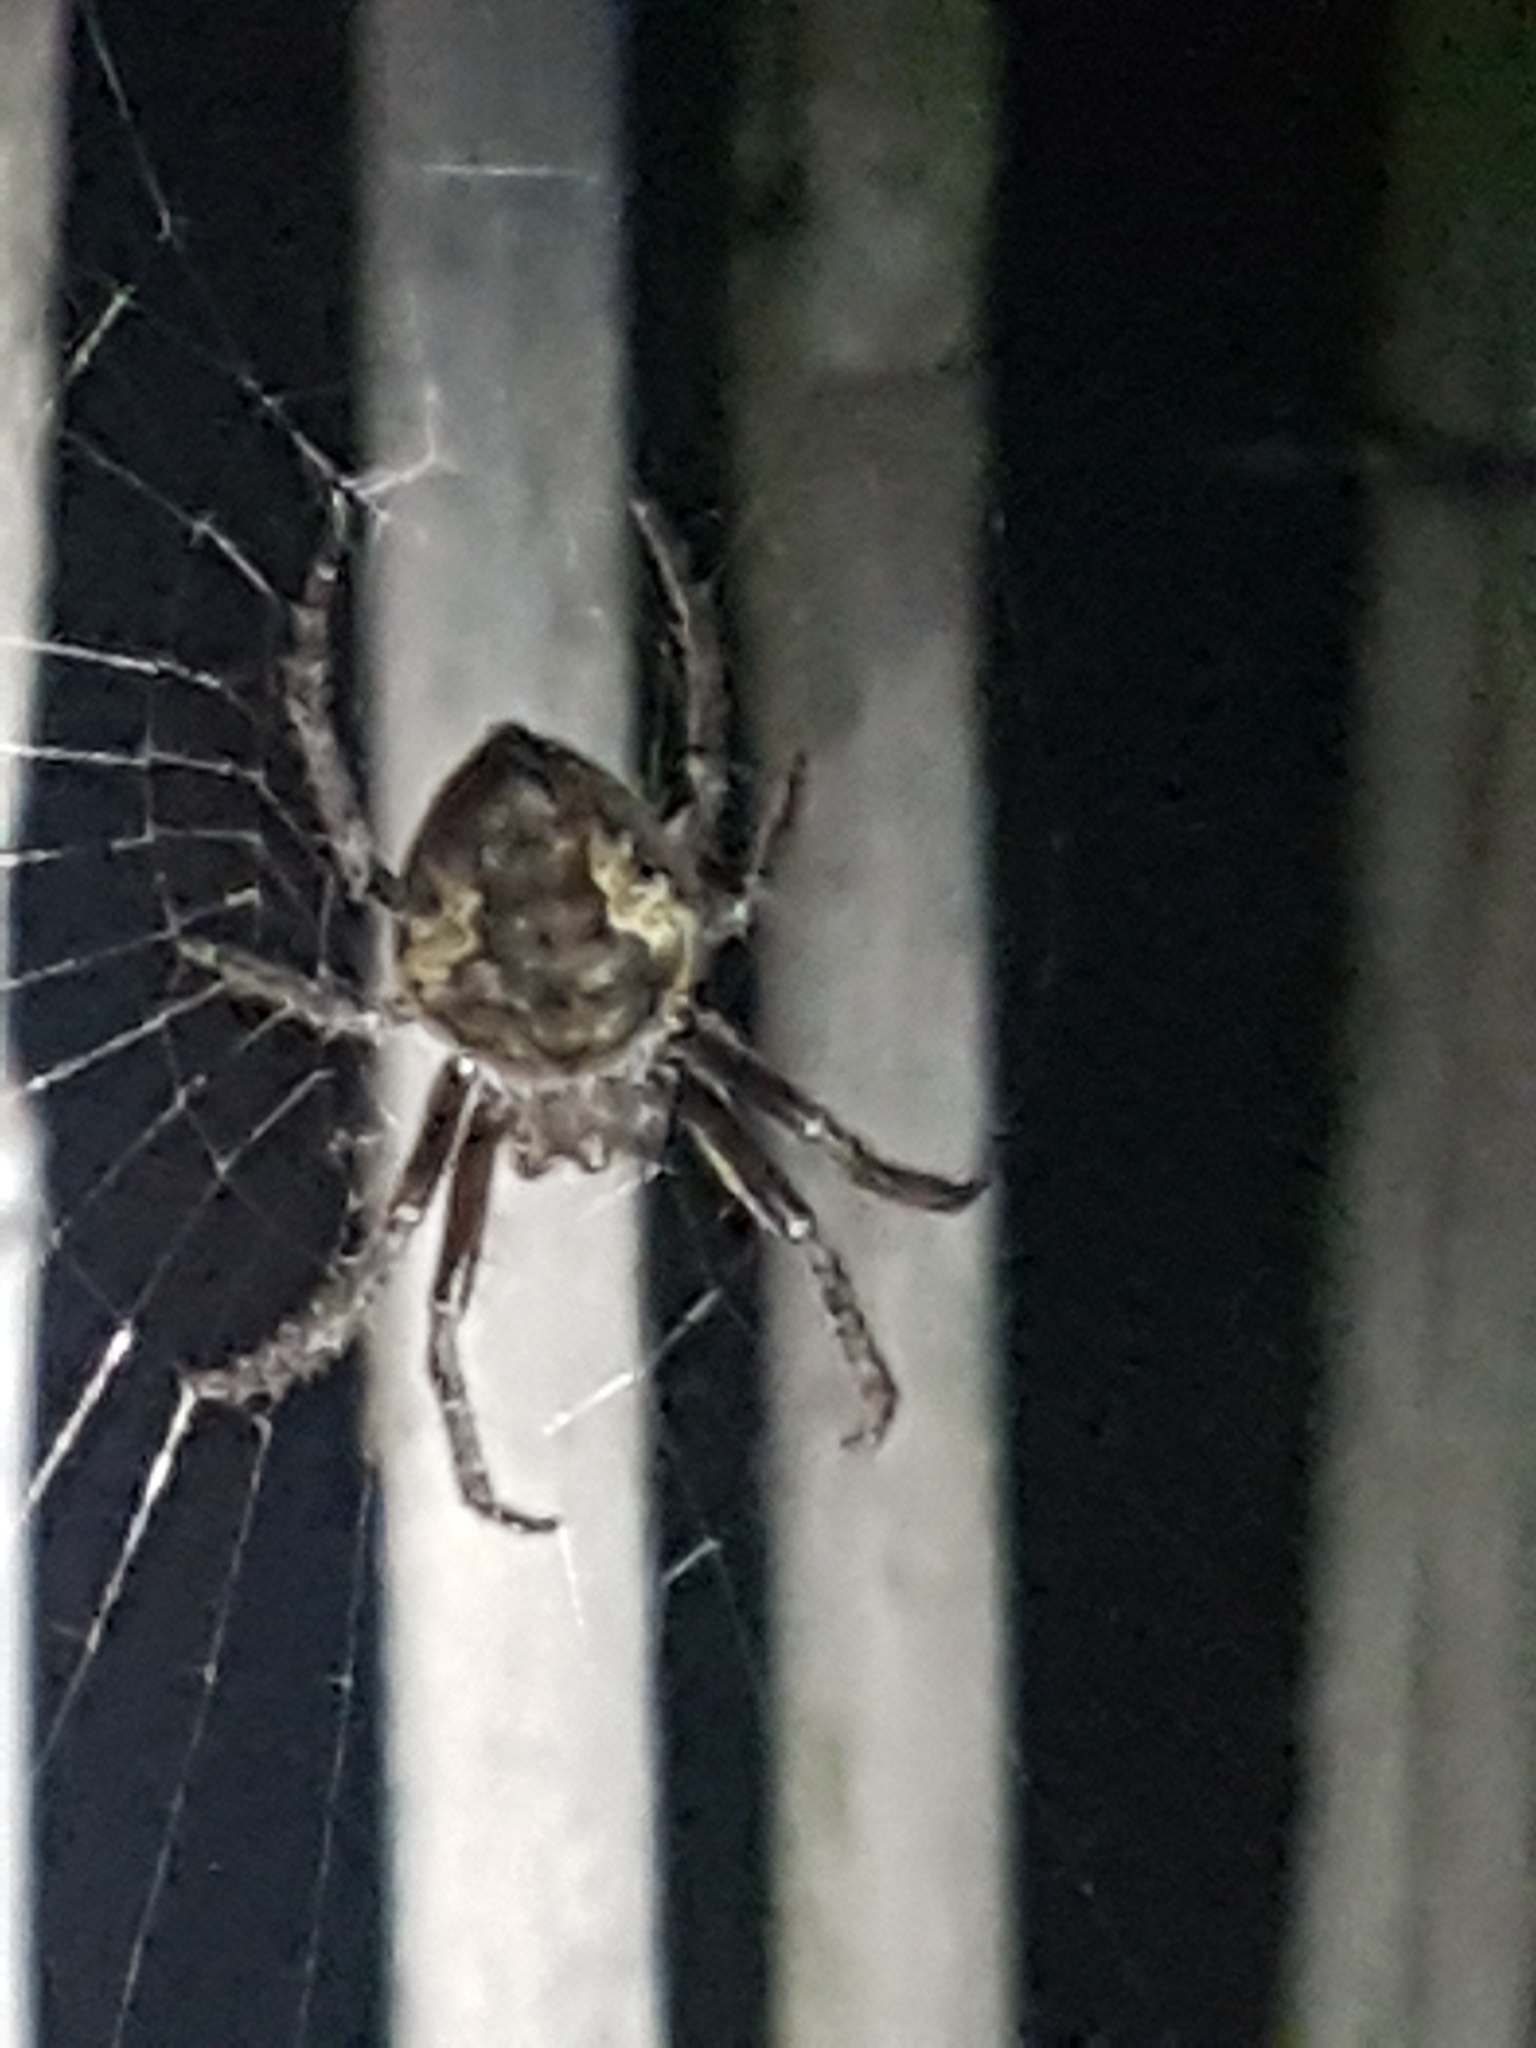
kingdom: Animalia
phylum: Arthropoda
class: Arachnida
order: Araneae
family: Araneidae
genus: Eriophora
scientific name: Eriophora pustulosa
